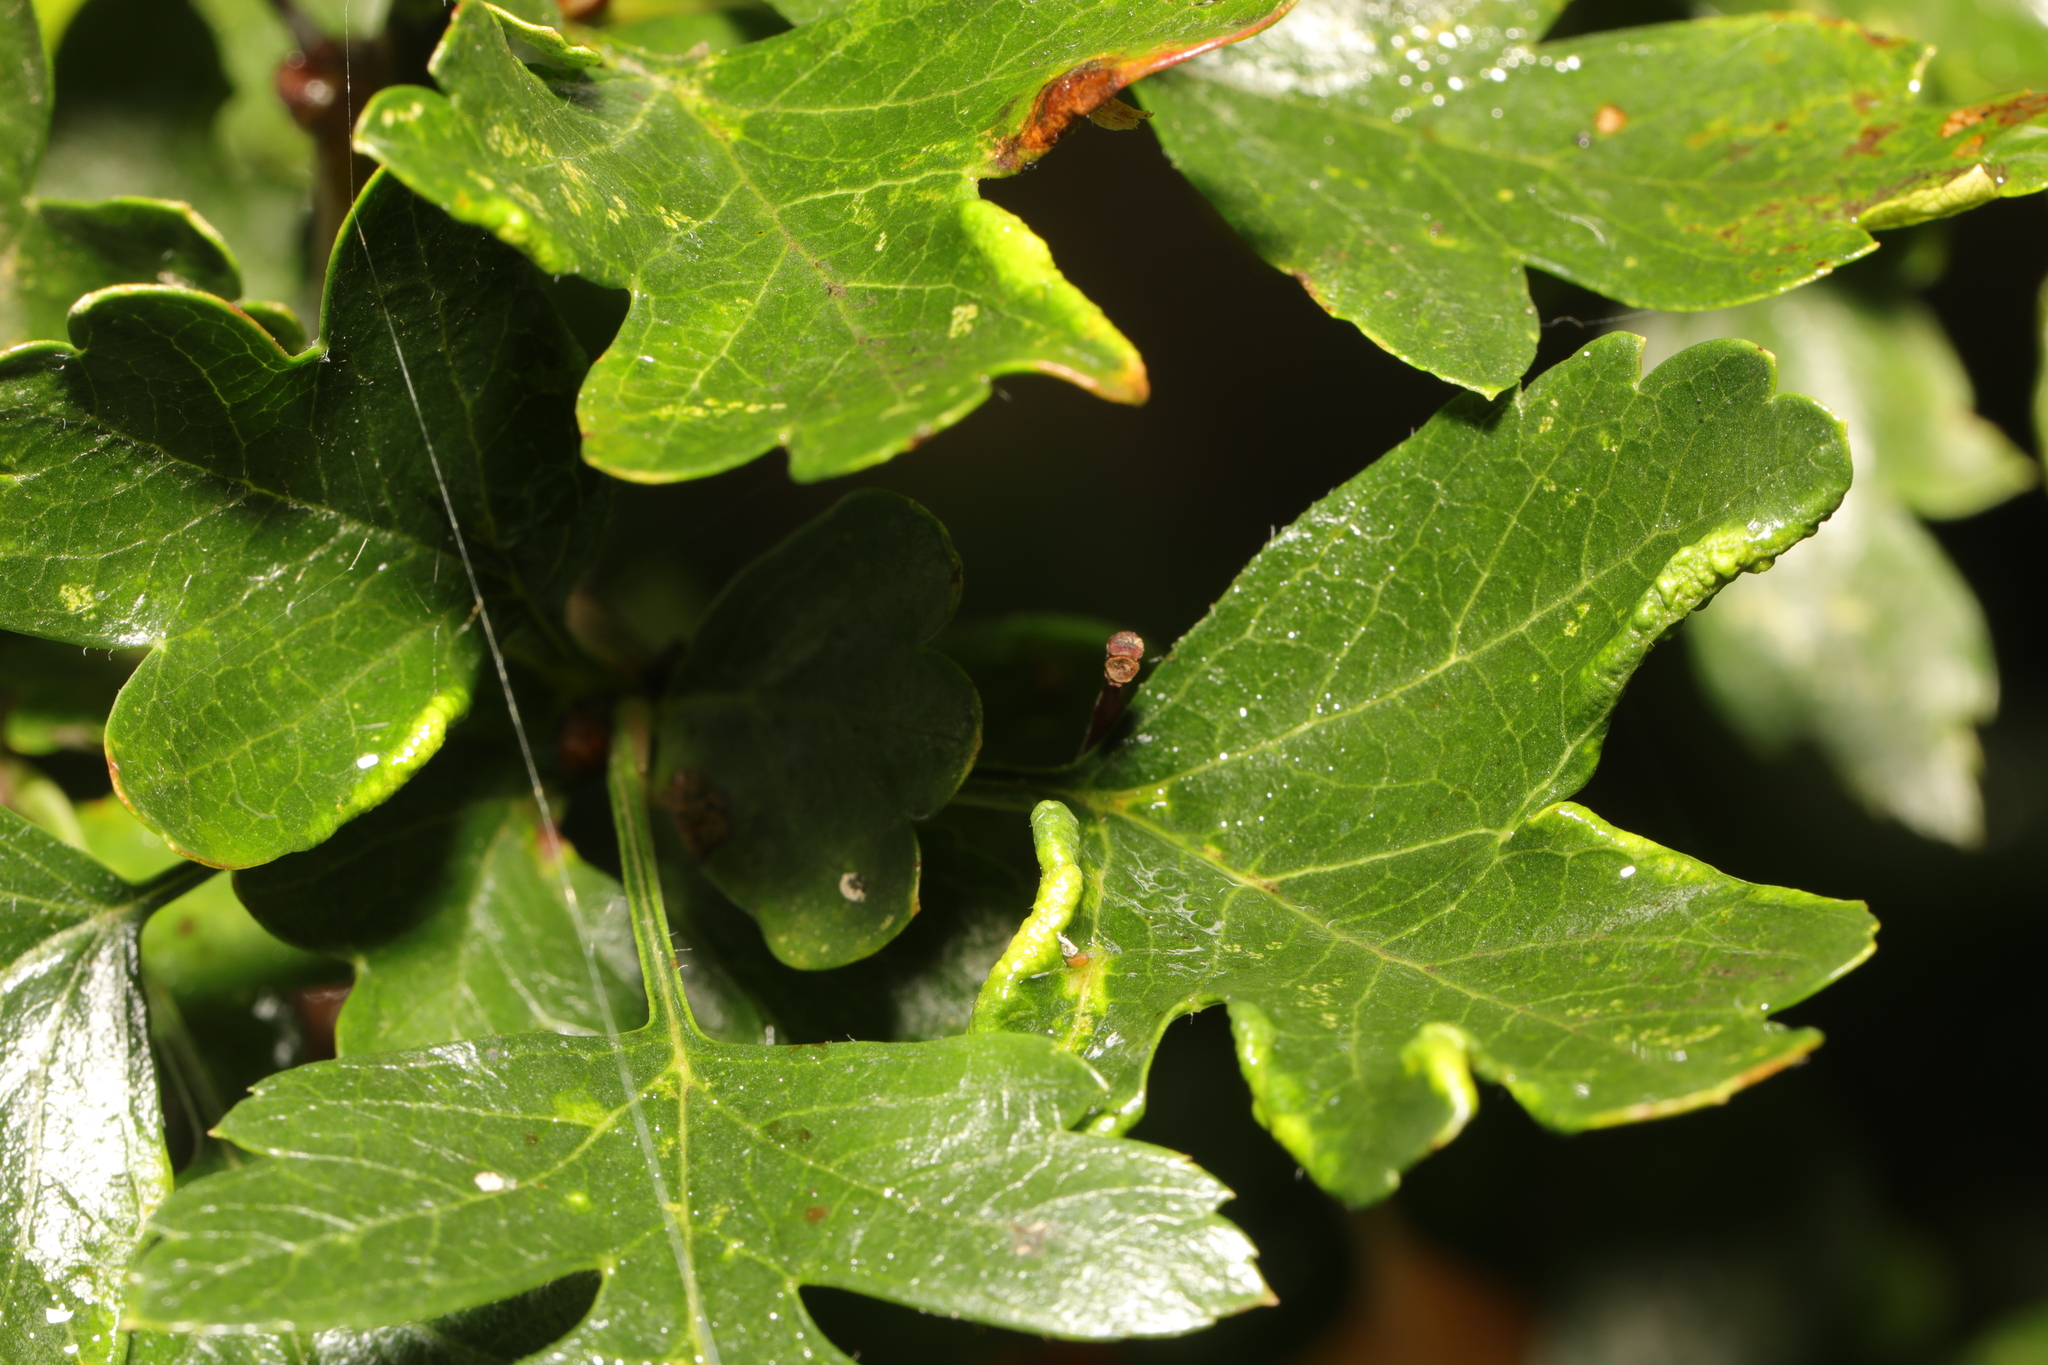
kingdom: Animalia
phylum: Arthropoda
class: Arachnida
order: Trombidiformes
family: Eriophyidae
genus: Phyllocoptes
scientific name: Phyllocoptes goniothorax
